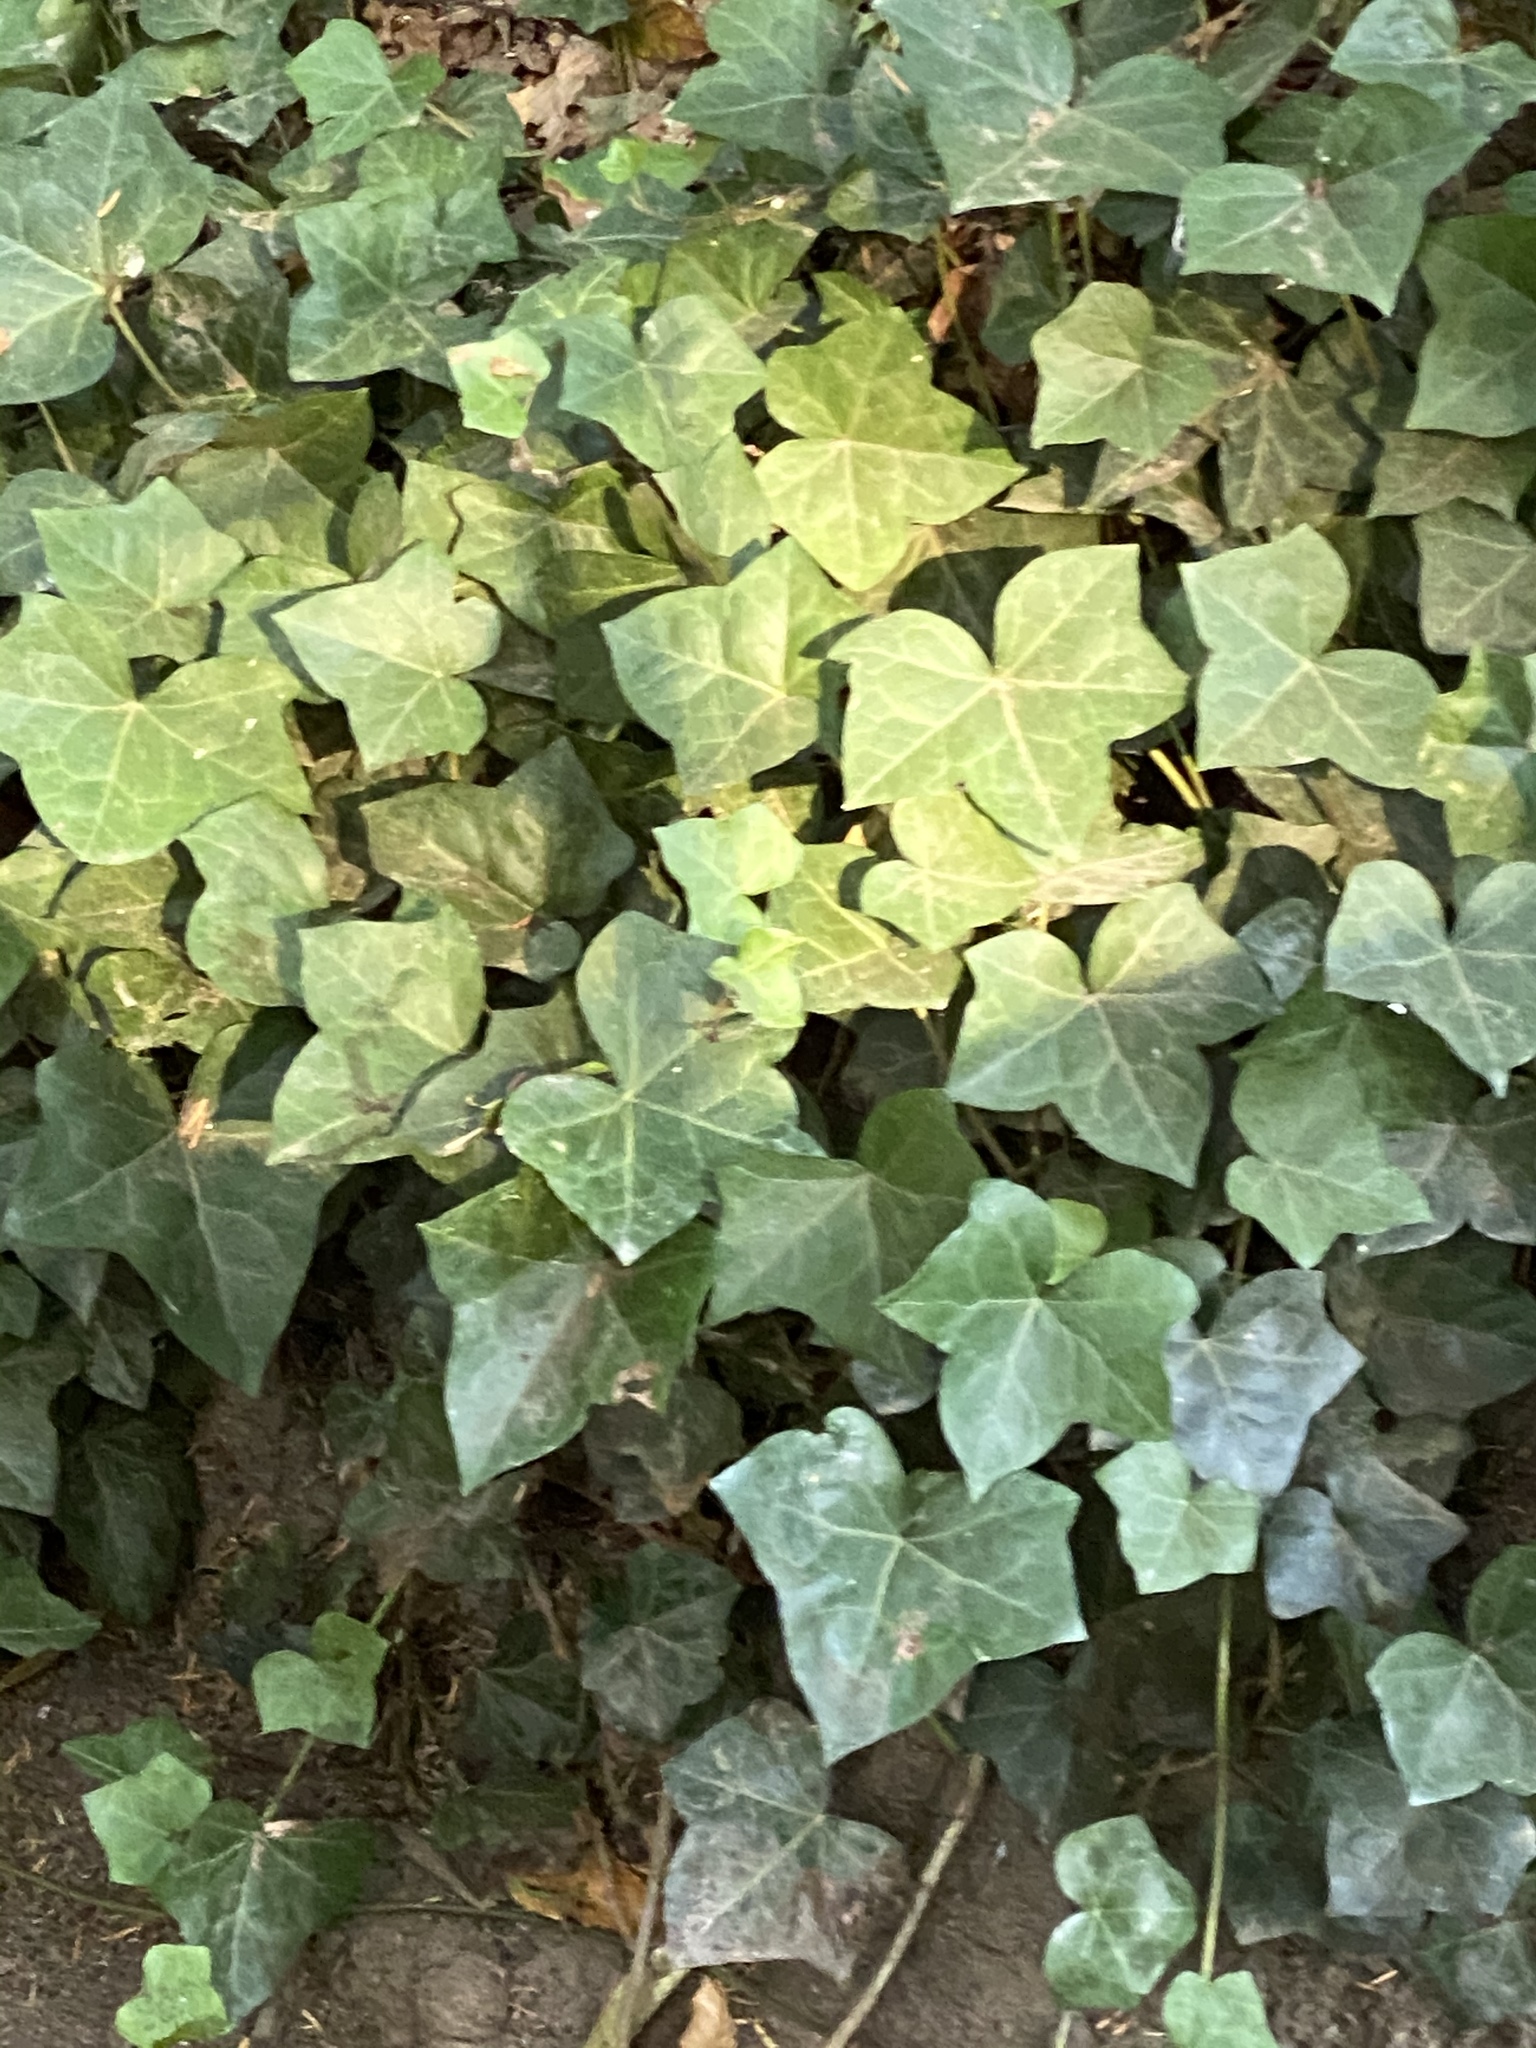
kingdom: Plantae
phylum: Tracheophyta
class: Magnoliopsida
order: Apiales
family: Araliaceae
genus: Hedera
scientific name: Hedera helix
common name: Ivy
